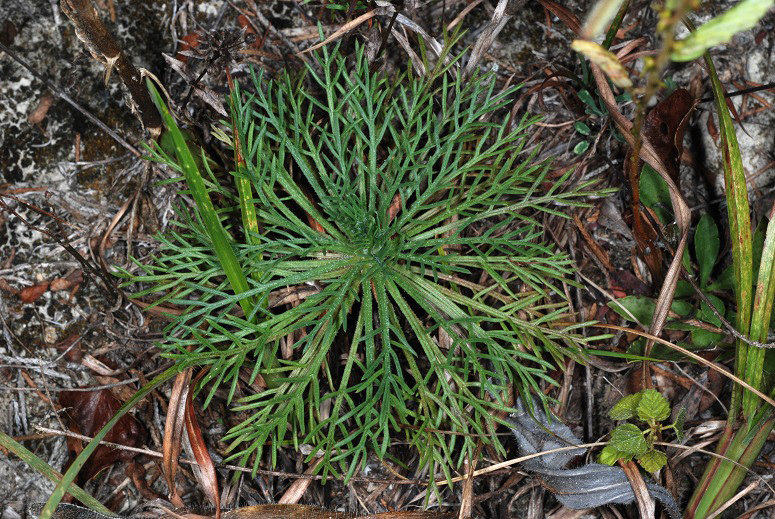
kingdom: Plantae
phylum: Tracheophyta
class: Magnoliopsida
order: Ericales
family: Polemoniaceae
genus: Ipomopsis
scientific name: Ipomopsis rubra
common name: Skyrocket
